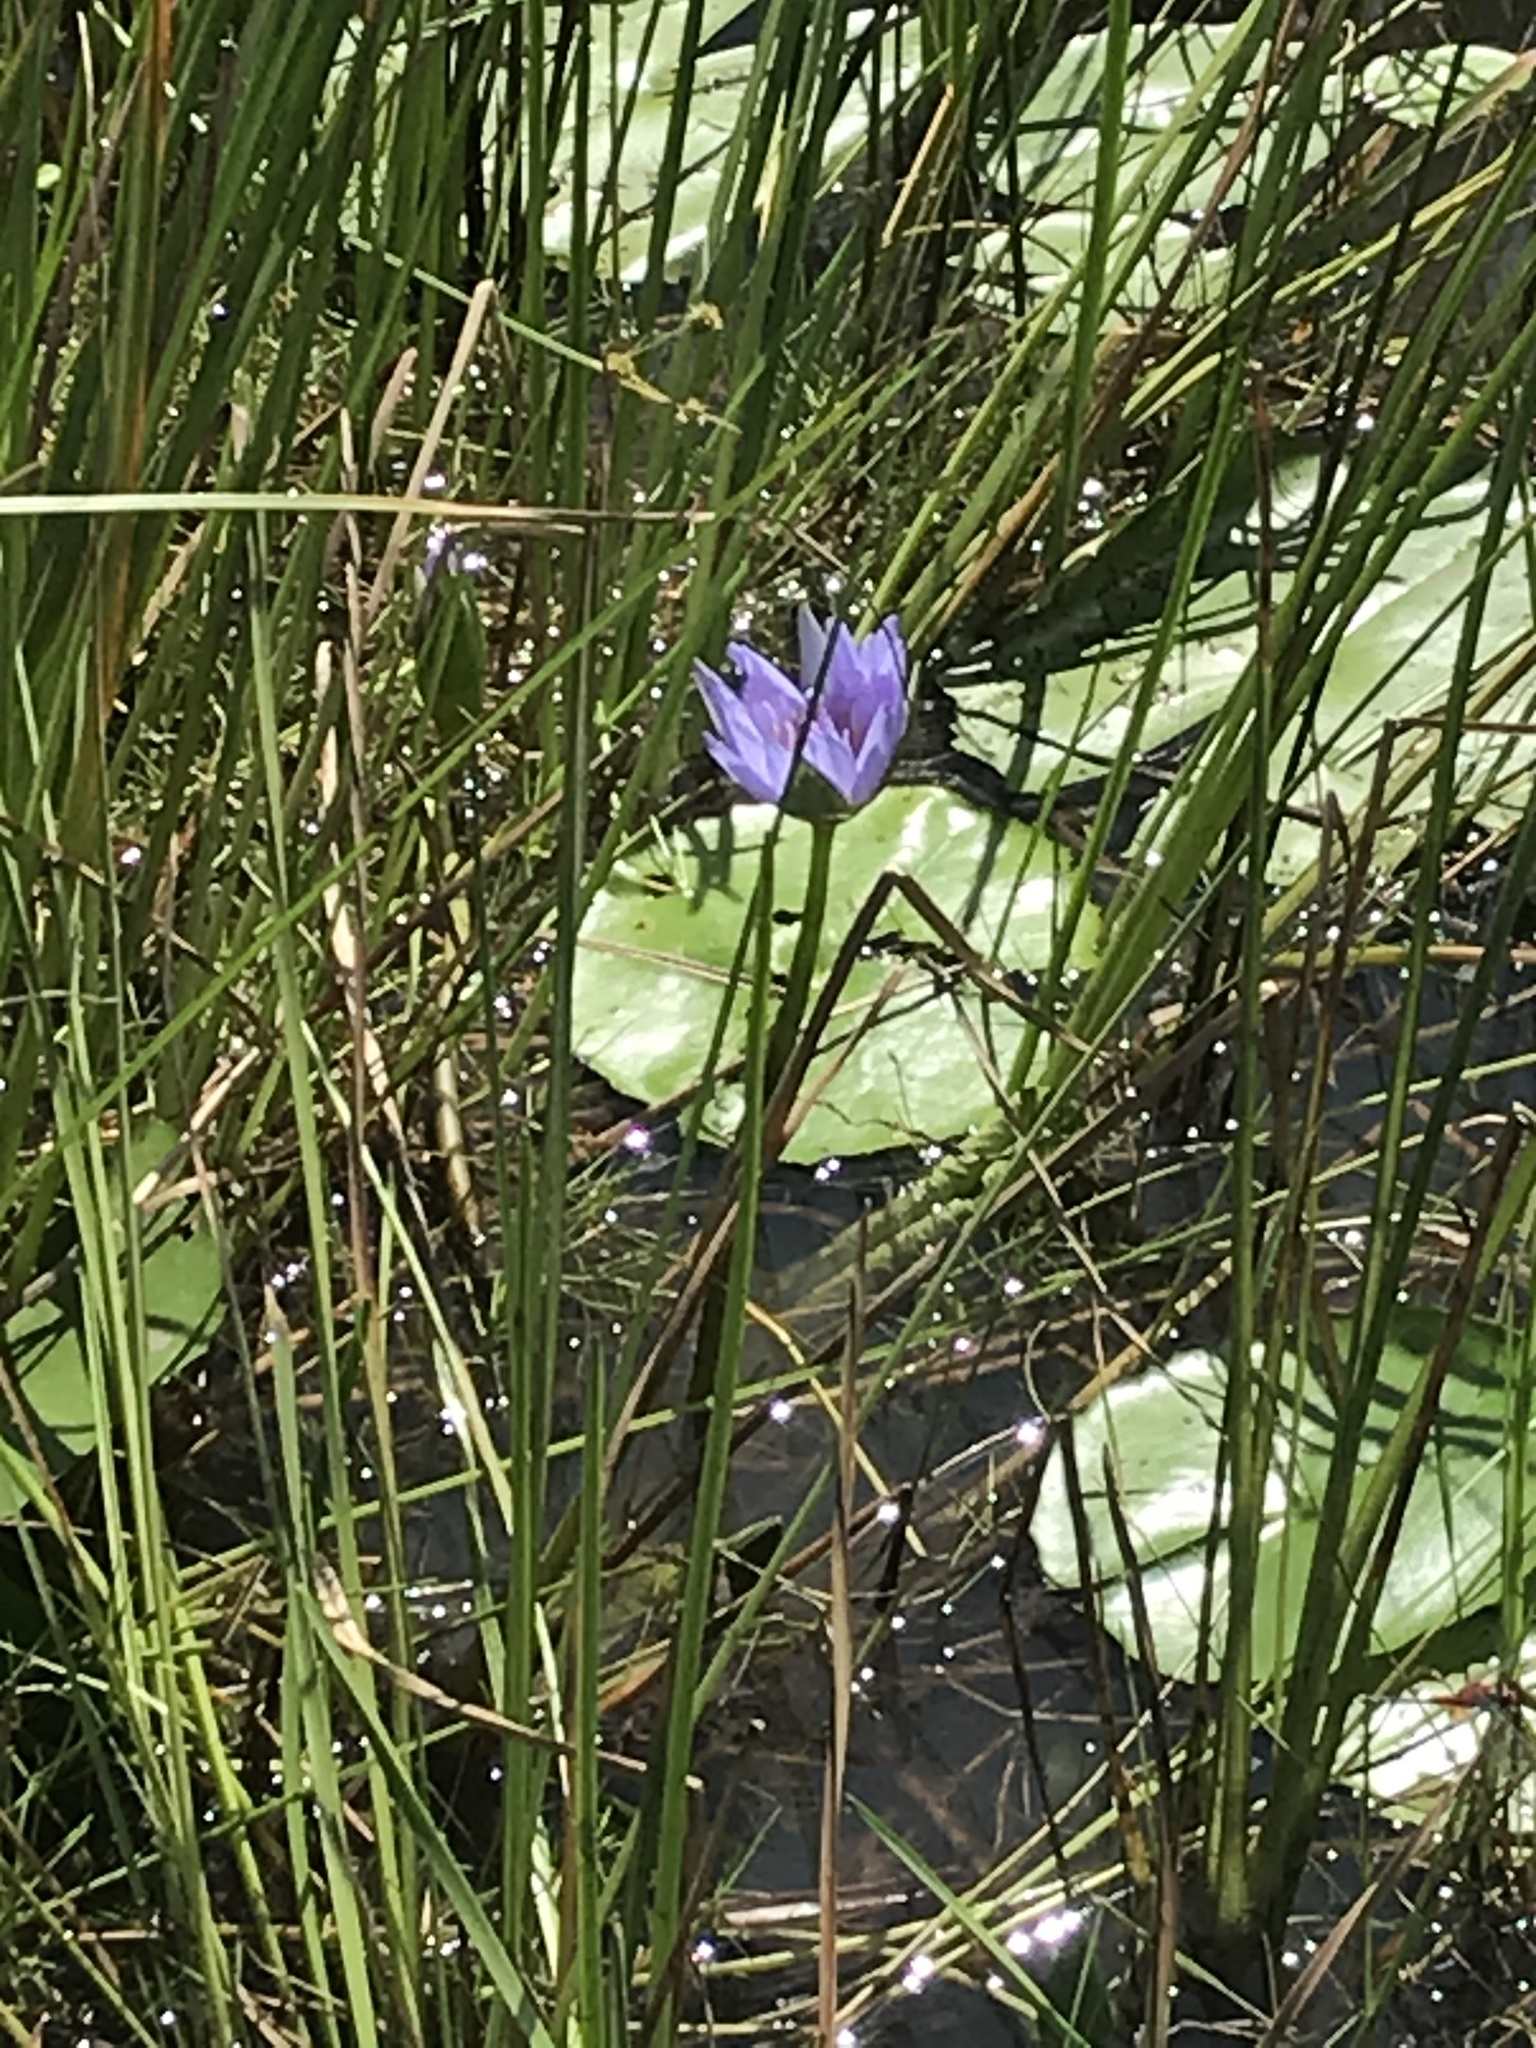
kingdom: Plantae
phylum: Tracheophyta
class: Magnoliopsida
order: Nymphaeales
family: Nymphaeaceae
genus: Nymphaea
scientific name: Nymphaea nouchali
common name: Blue lotus
